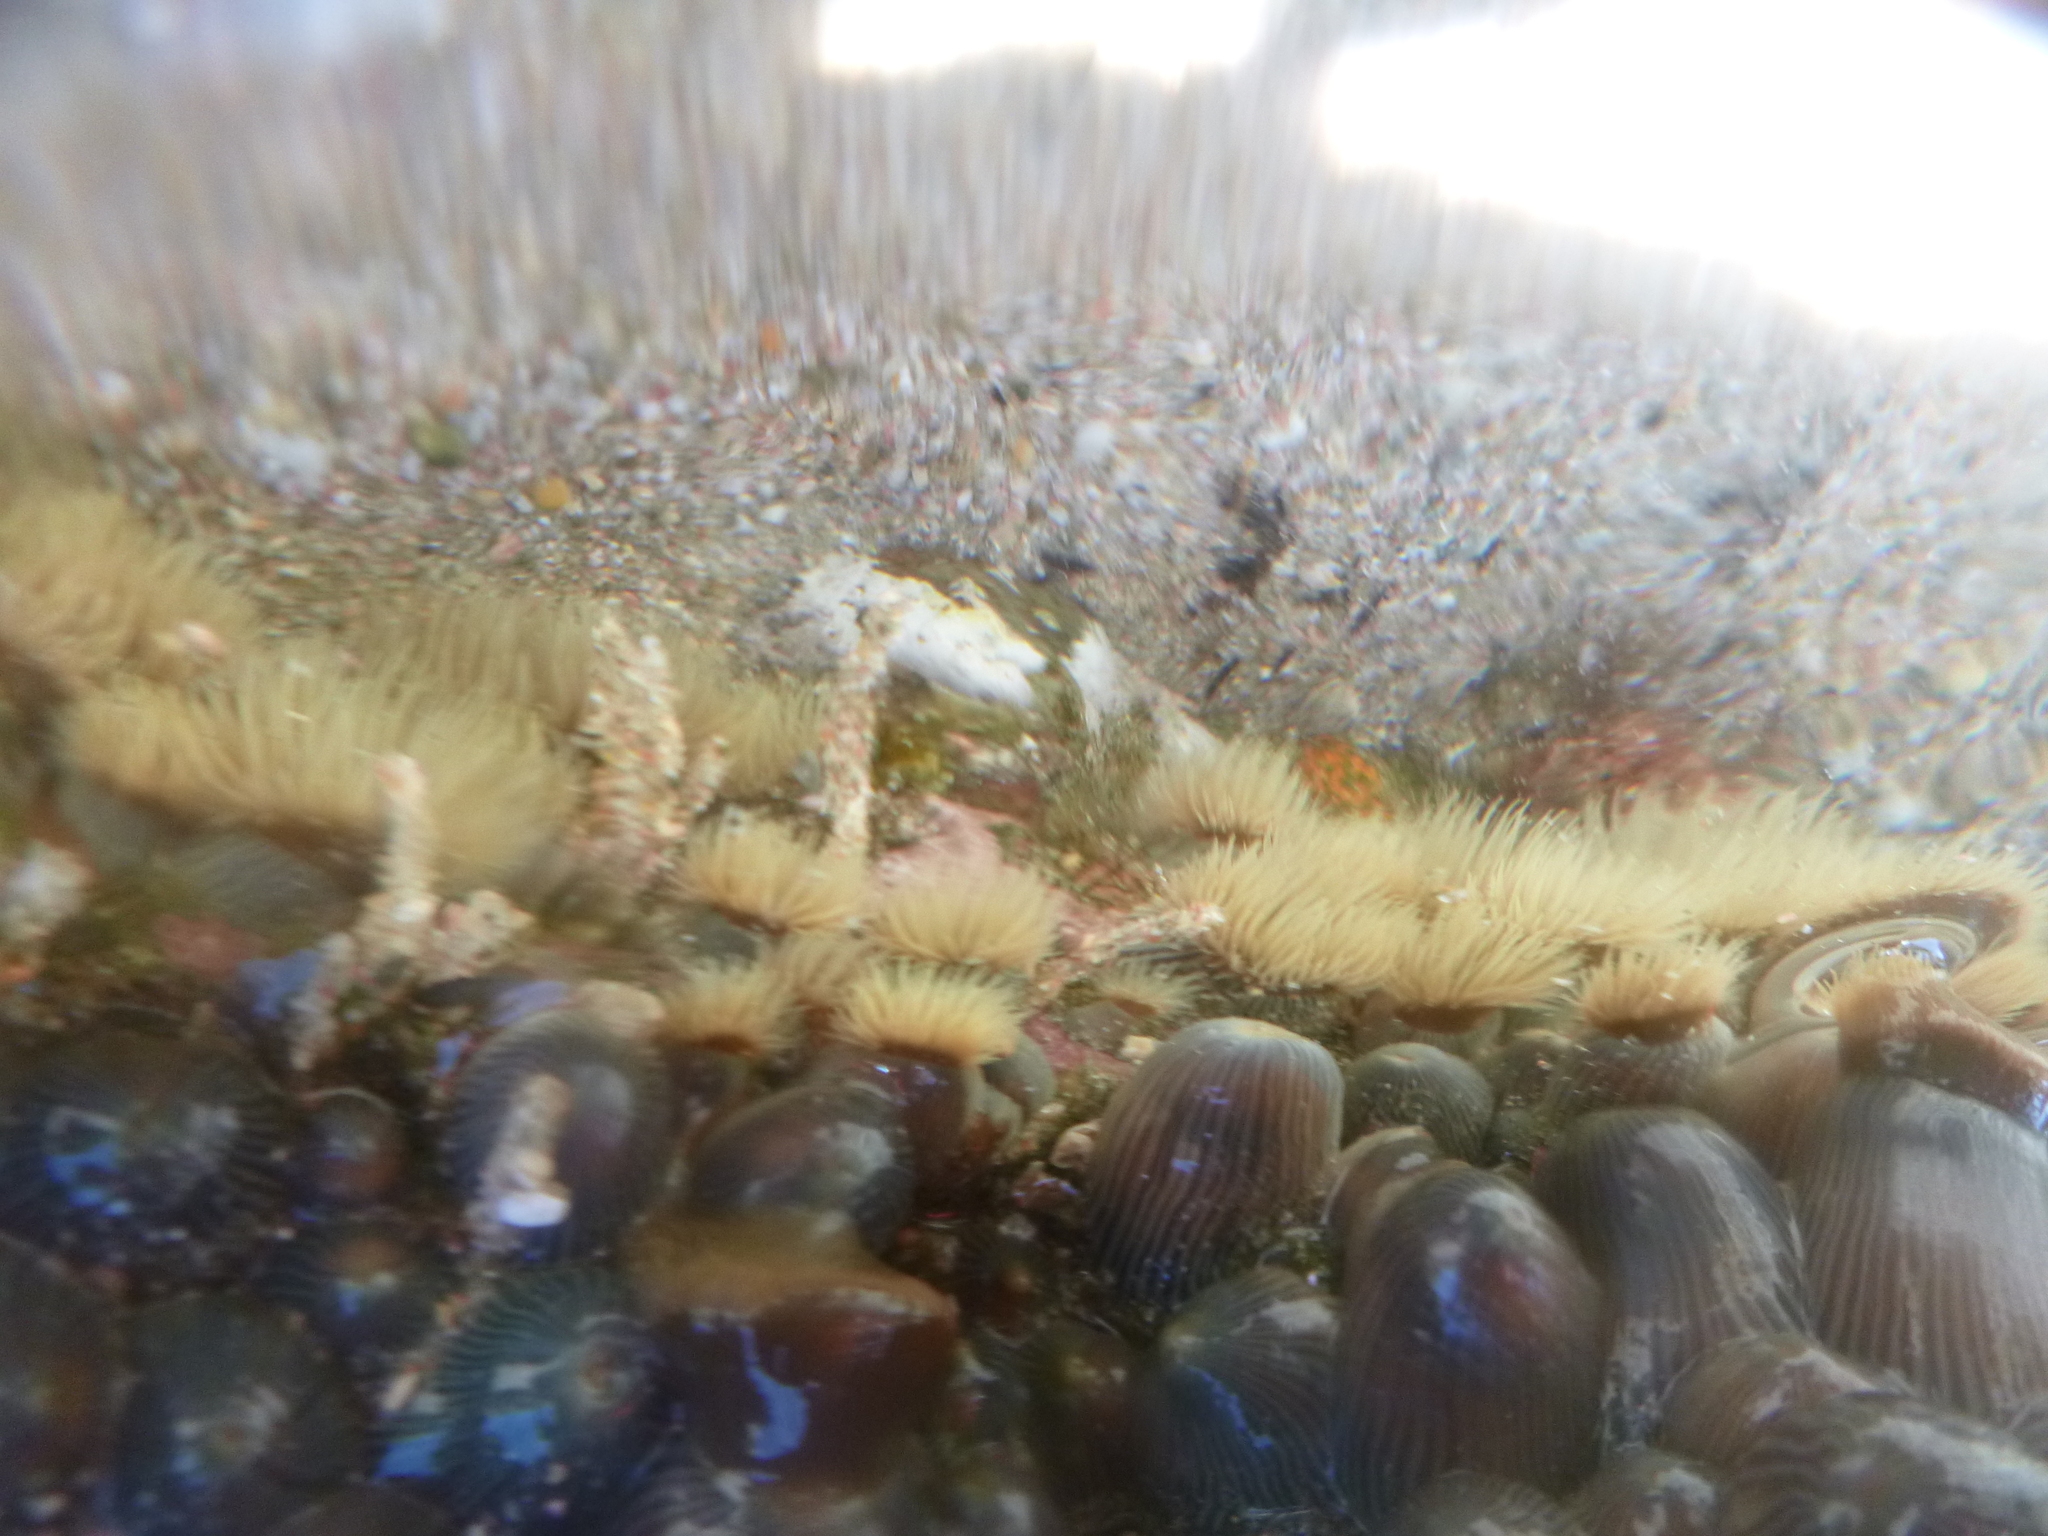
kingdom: Animalia
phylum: Cnidaria
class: Anthozoa
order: Actiniaria
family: Diadumenidae
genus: Diadumene
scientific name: Diadumene neozelanica
